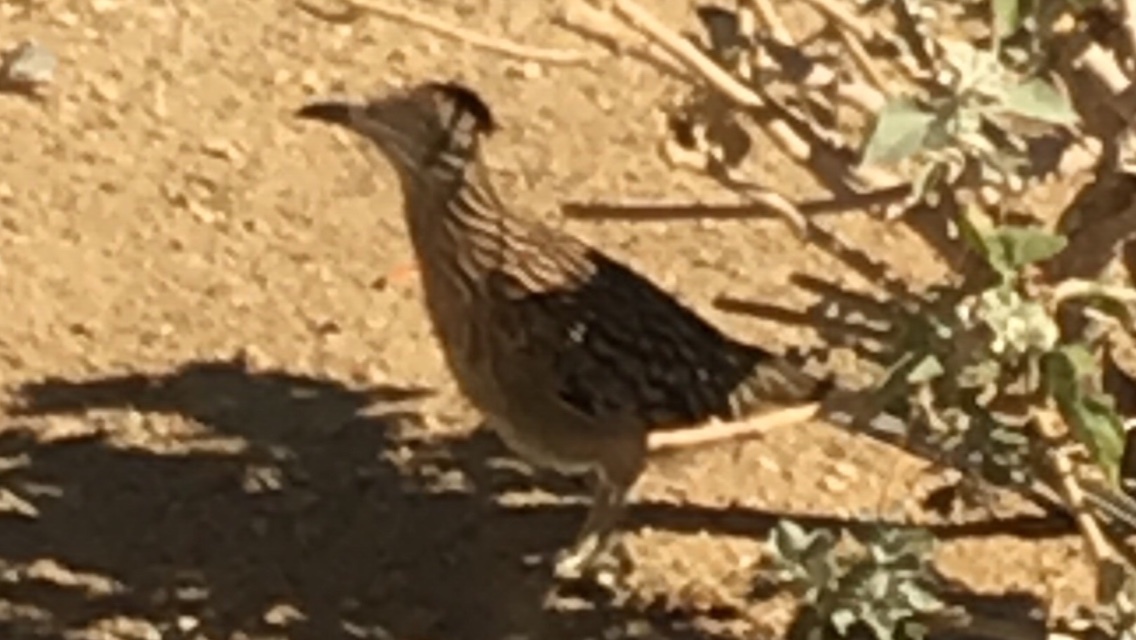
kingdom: Animalia
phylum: Chordata
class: Aves
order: Cuculiformes
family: Cuculidae
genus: Geococcyx
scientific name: Geococcyx californianus
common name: Greater roadrunner
